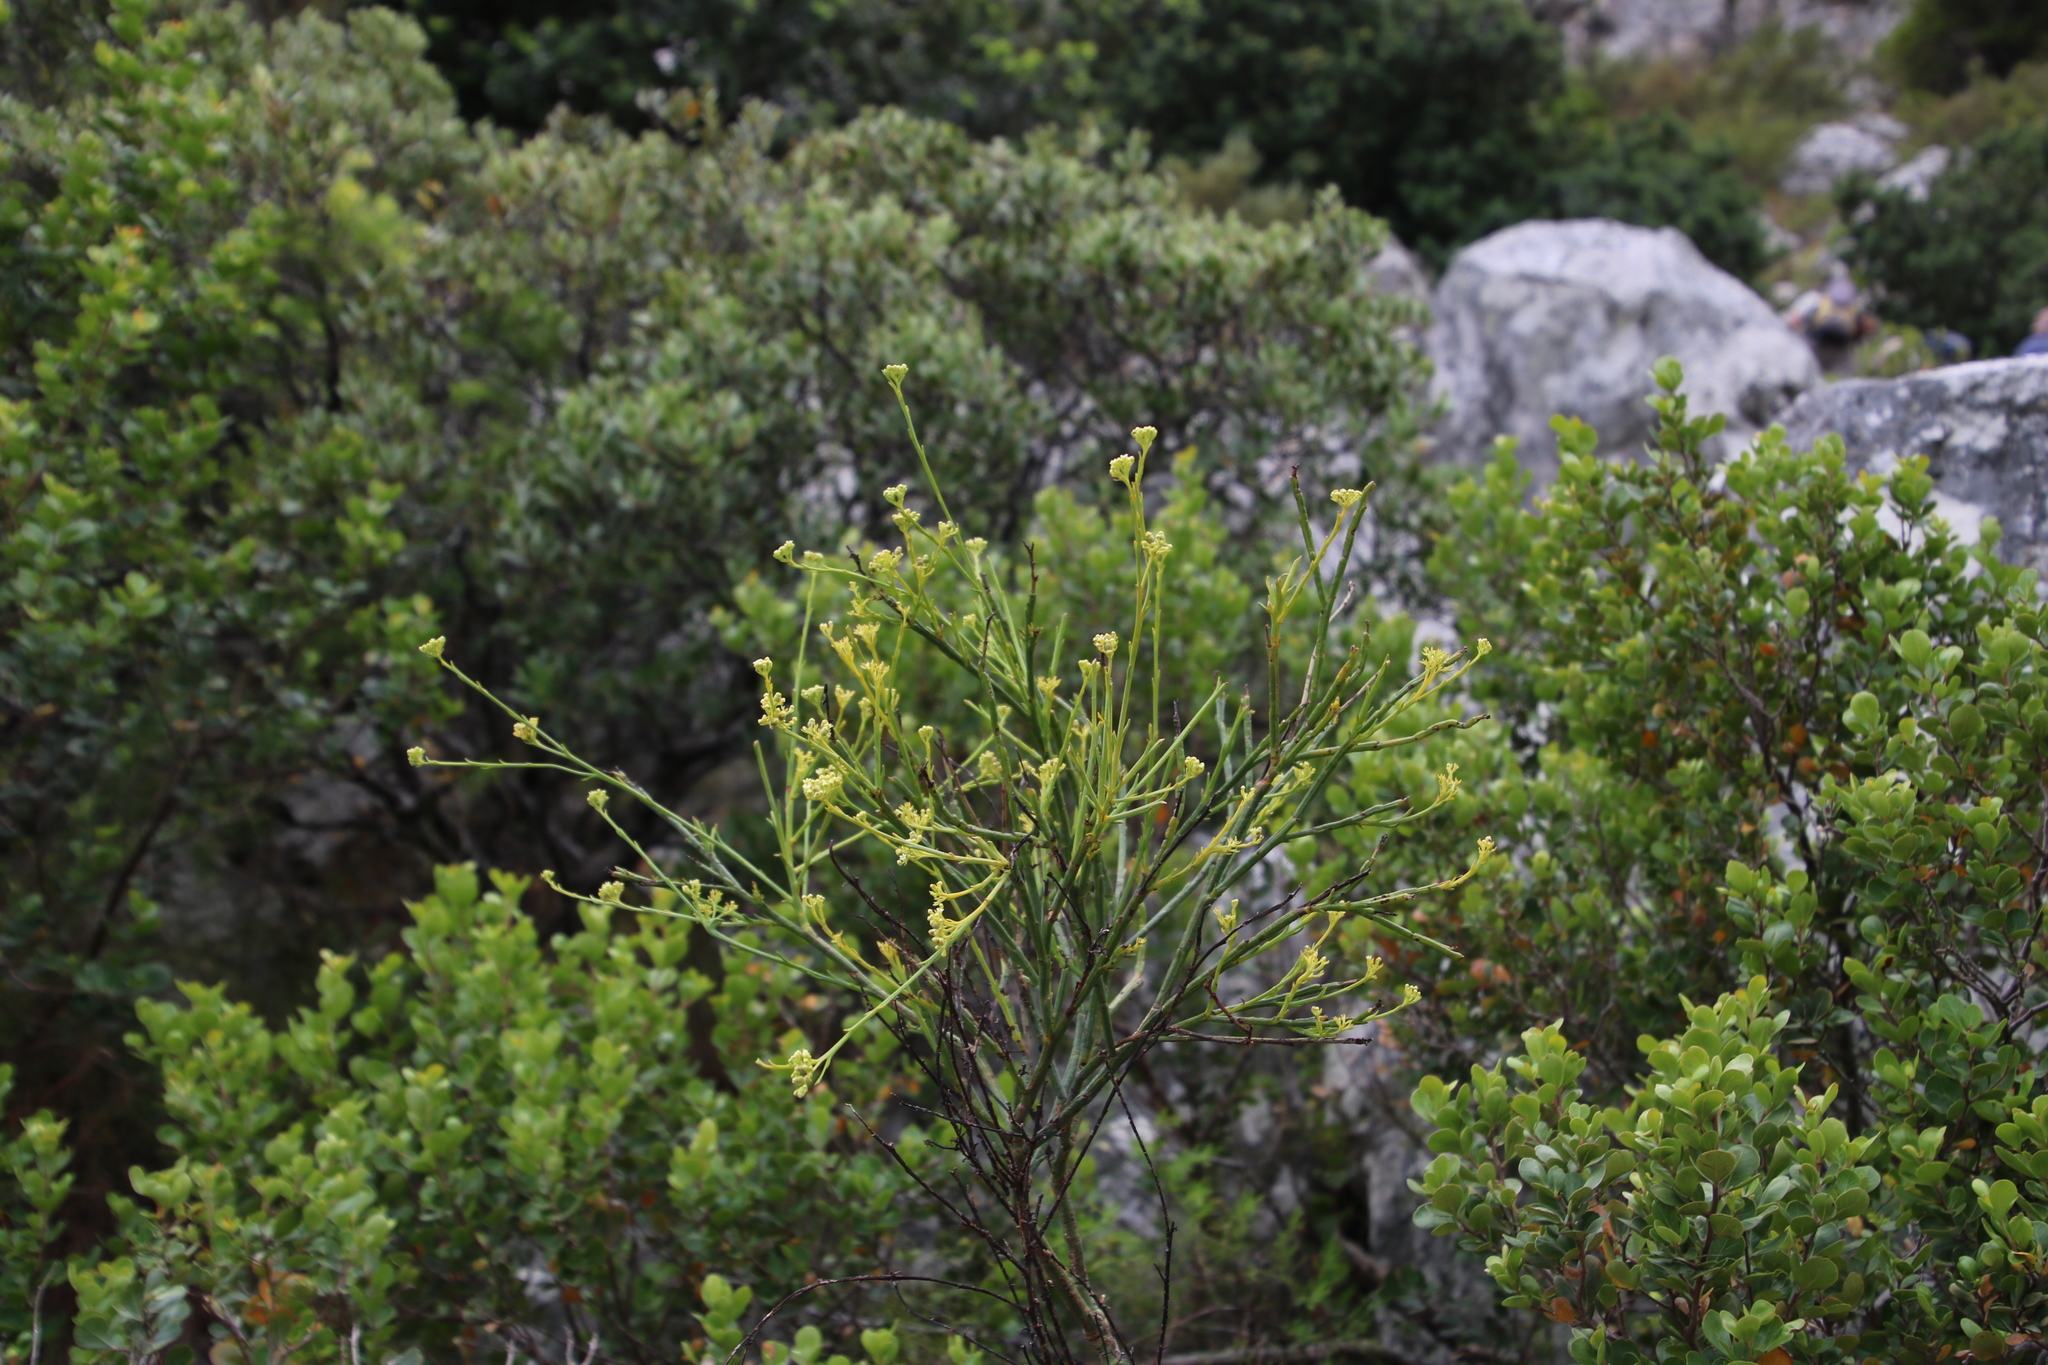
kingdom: Plantae
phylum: Tracheophyta
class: Magnoliopsida
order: Santalales
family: Thesiaceae
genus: Thesium
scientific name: Thesium strictum
